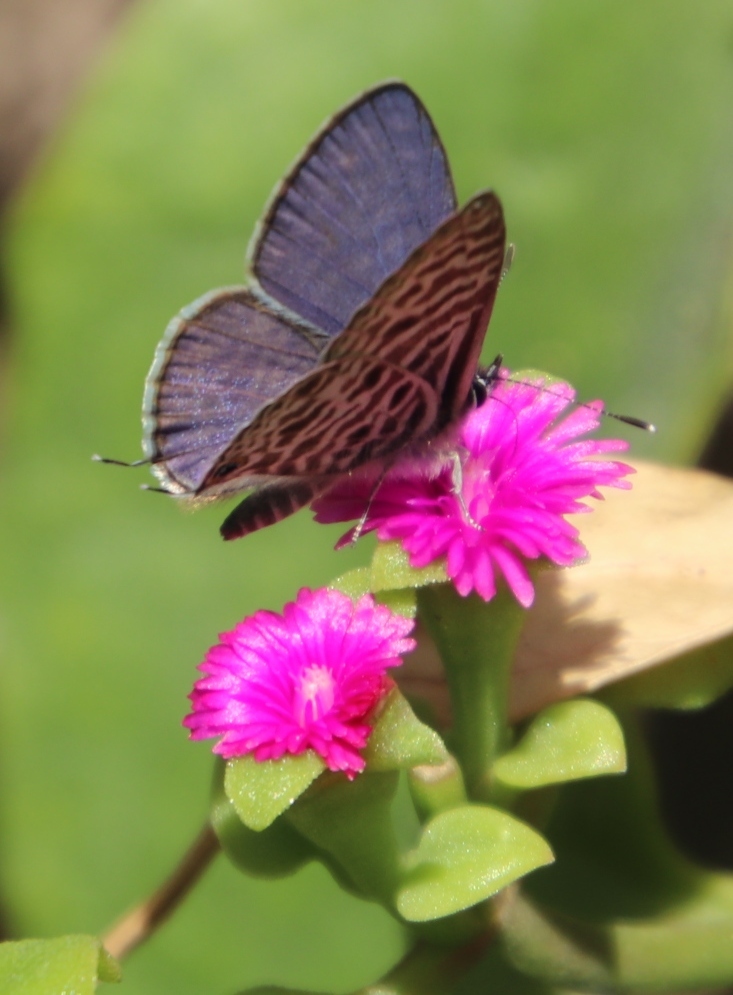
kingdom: Plantae
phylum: Tracheophyta
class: Magnoliopsida
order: Caryophyllales
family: Aizoaceae
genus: Mesembryanthemum
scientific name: Mesembryanthemum cordifolium
